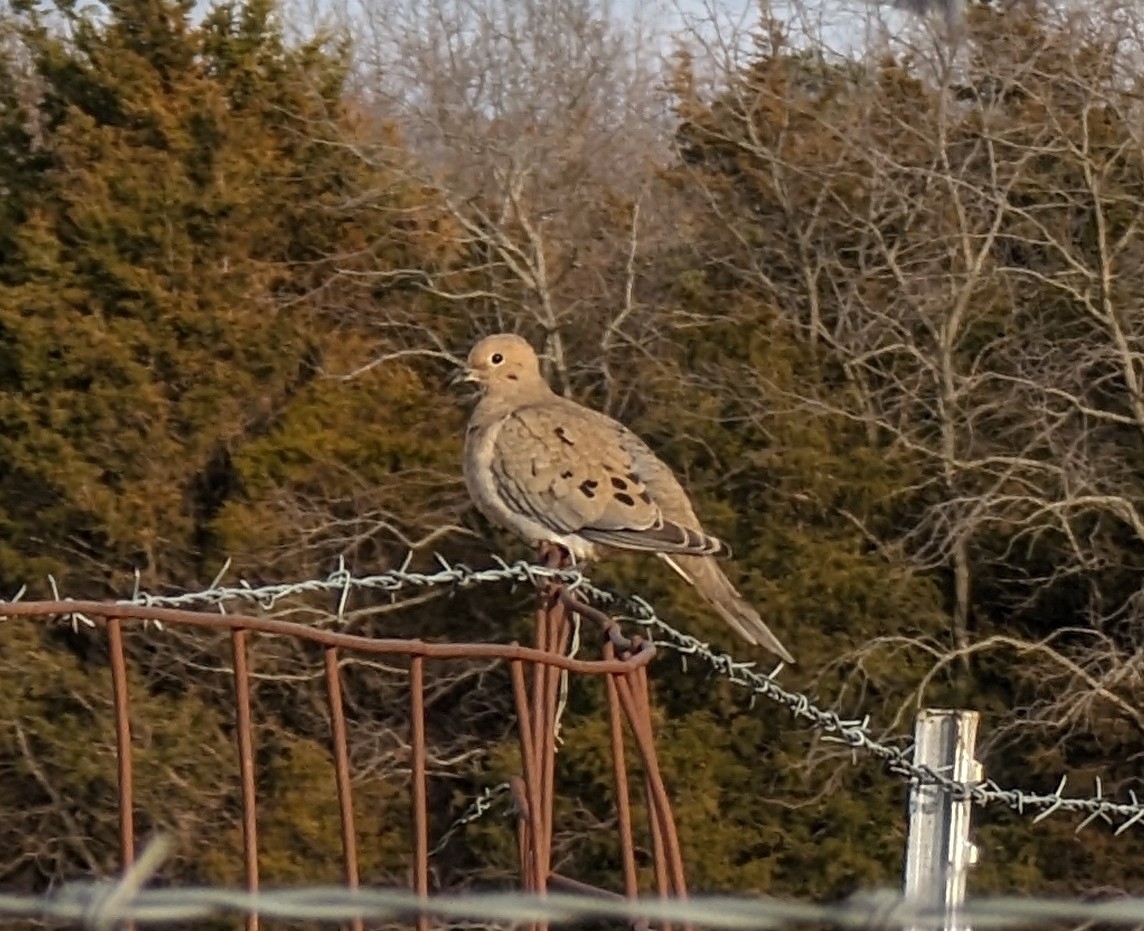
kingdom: Animalia
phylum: Chordata
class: Aves
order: Columbiformes
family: Columbidae
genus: Zenaida
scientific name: Zenaida macroura
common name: Mourning dove
